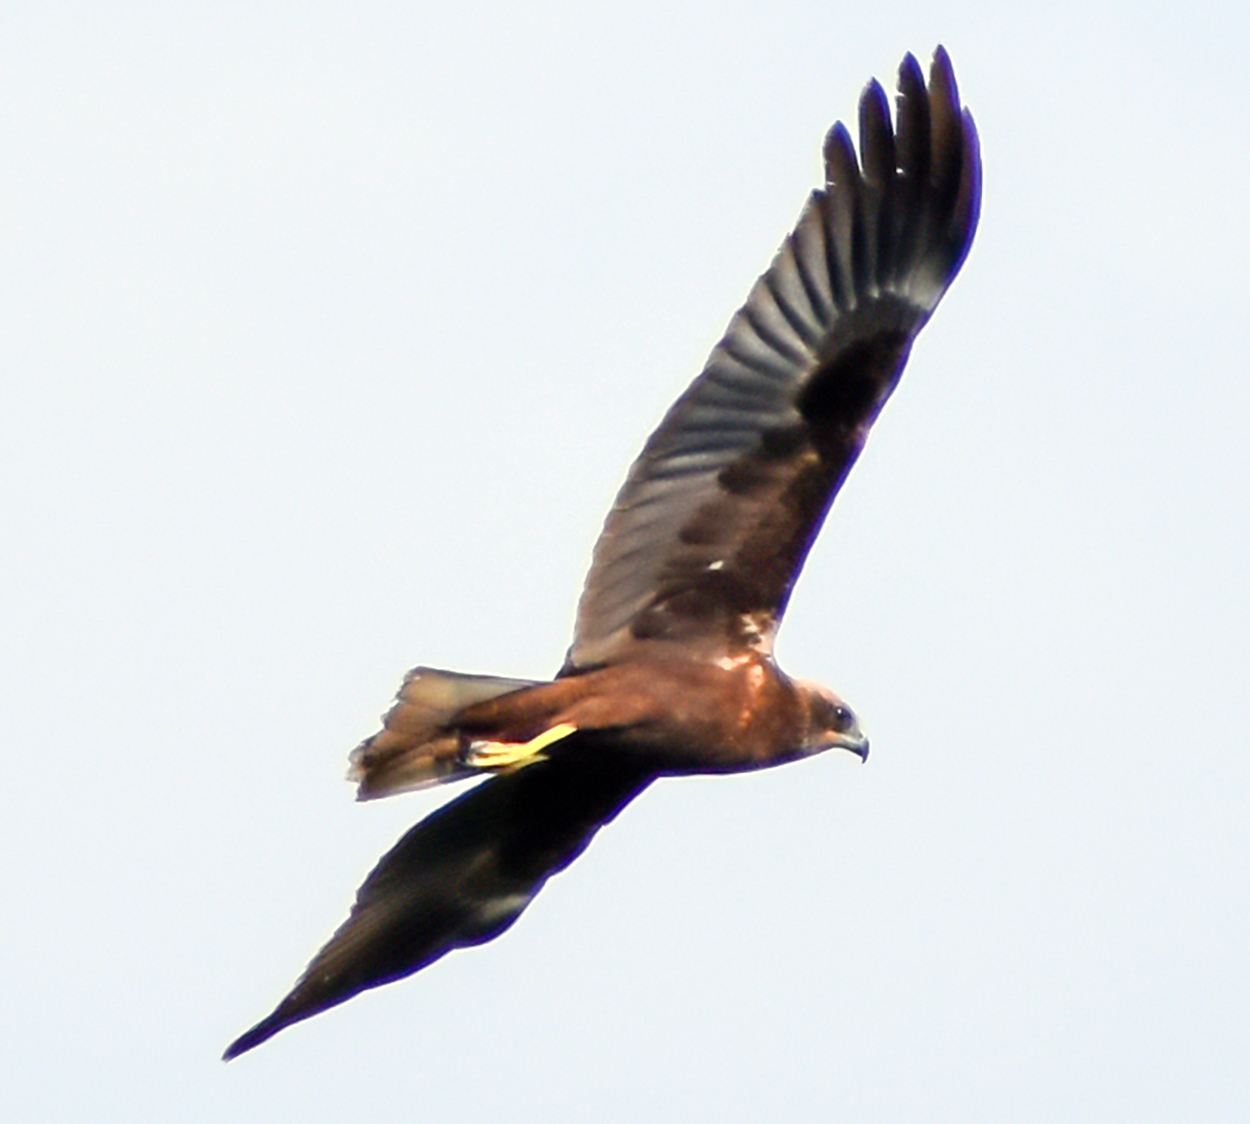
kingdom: Animalia
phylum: Chordata
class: Aves
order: Accipitriformes
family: Accipitridae
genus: Circus
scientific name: Circus aeruginosus
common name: Western marsh harrier
